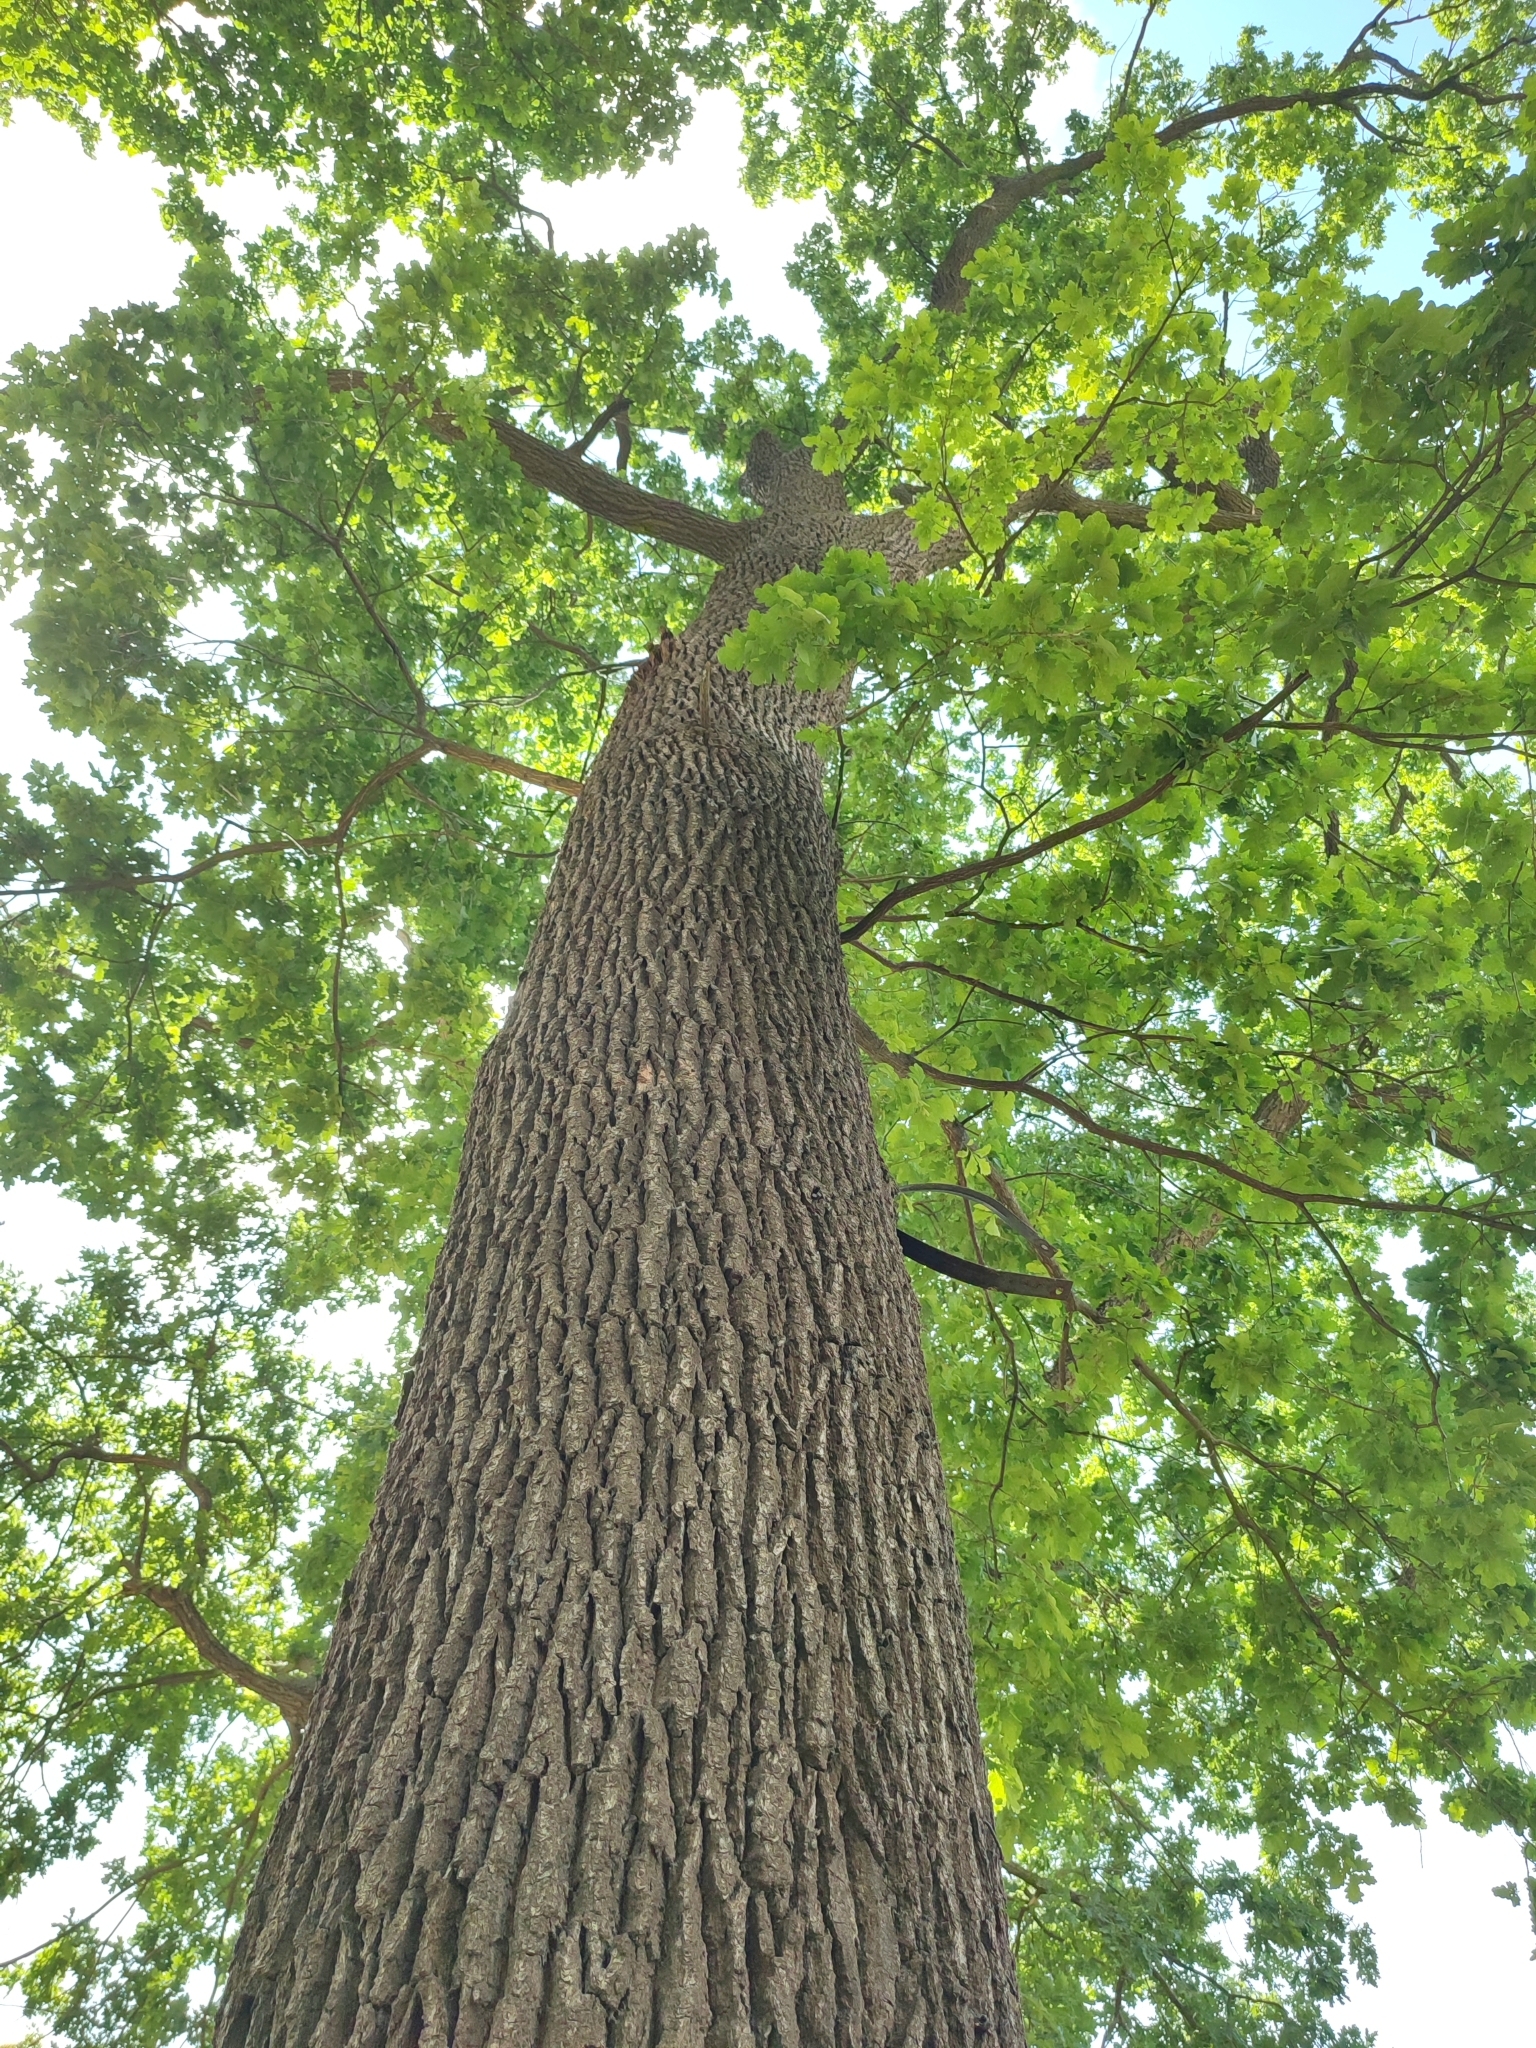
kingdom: Plantae
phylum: Tracheophyta
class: Magnoliopsida
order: Fagales
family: Fagaceae
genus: Quercus
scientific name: Quercus robur
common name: Pedunculate oak
